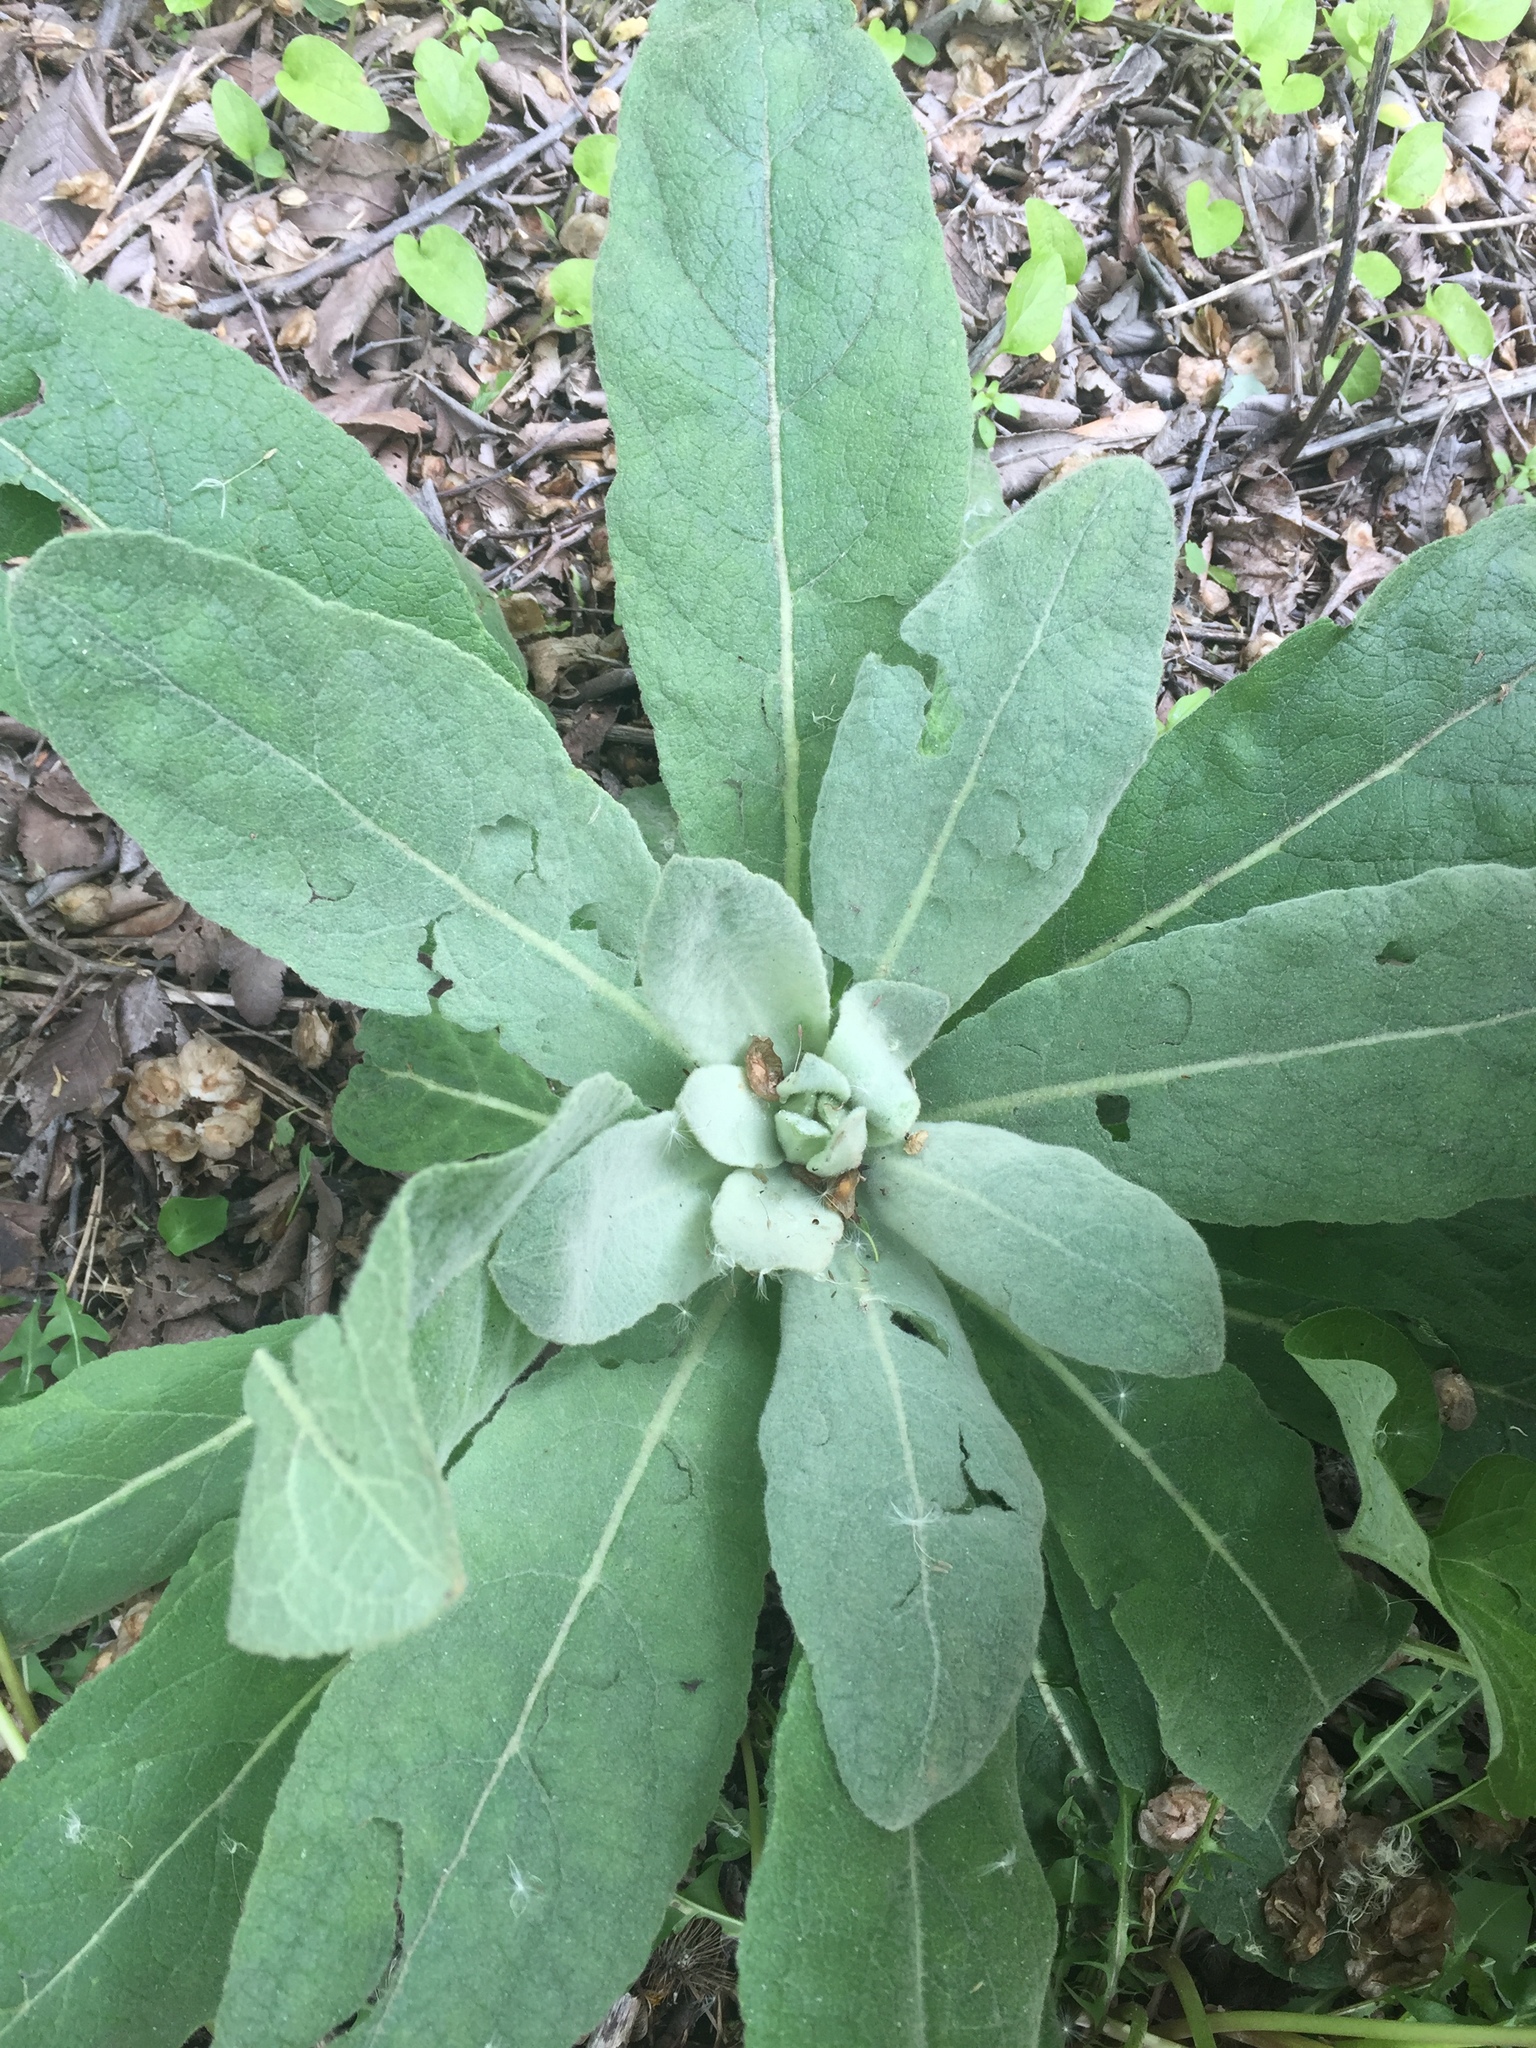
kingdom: Plantae
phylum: Tracheophyta
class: Magnoliopsida
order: Lamiales
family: Scrophulariaceae
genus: Verbascum
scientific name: Verbascum thapsus
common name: Common mullein
